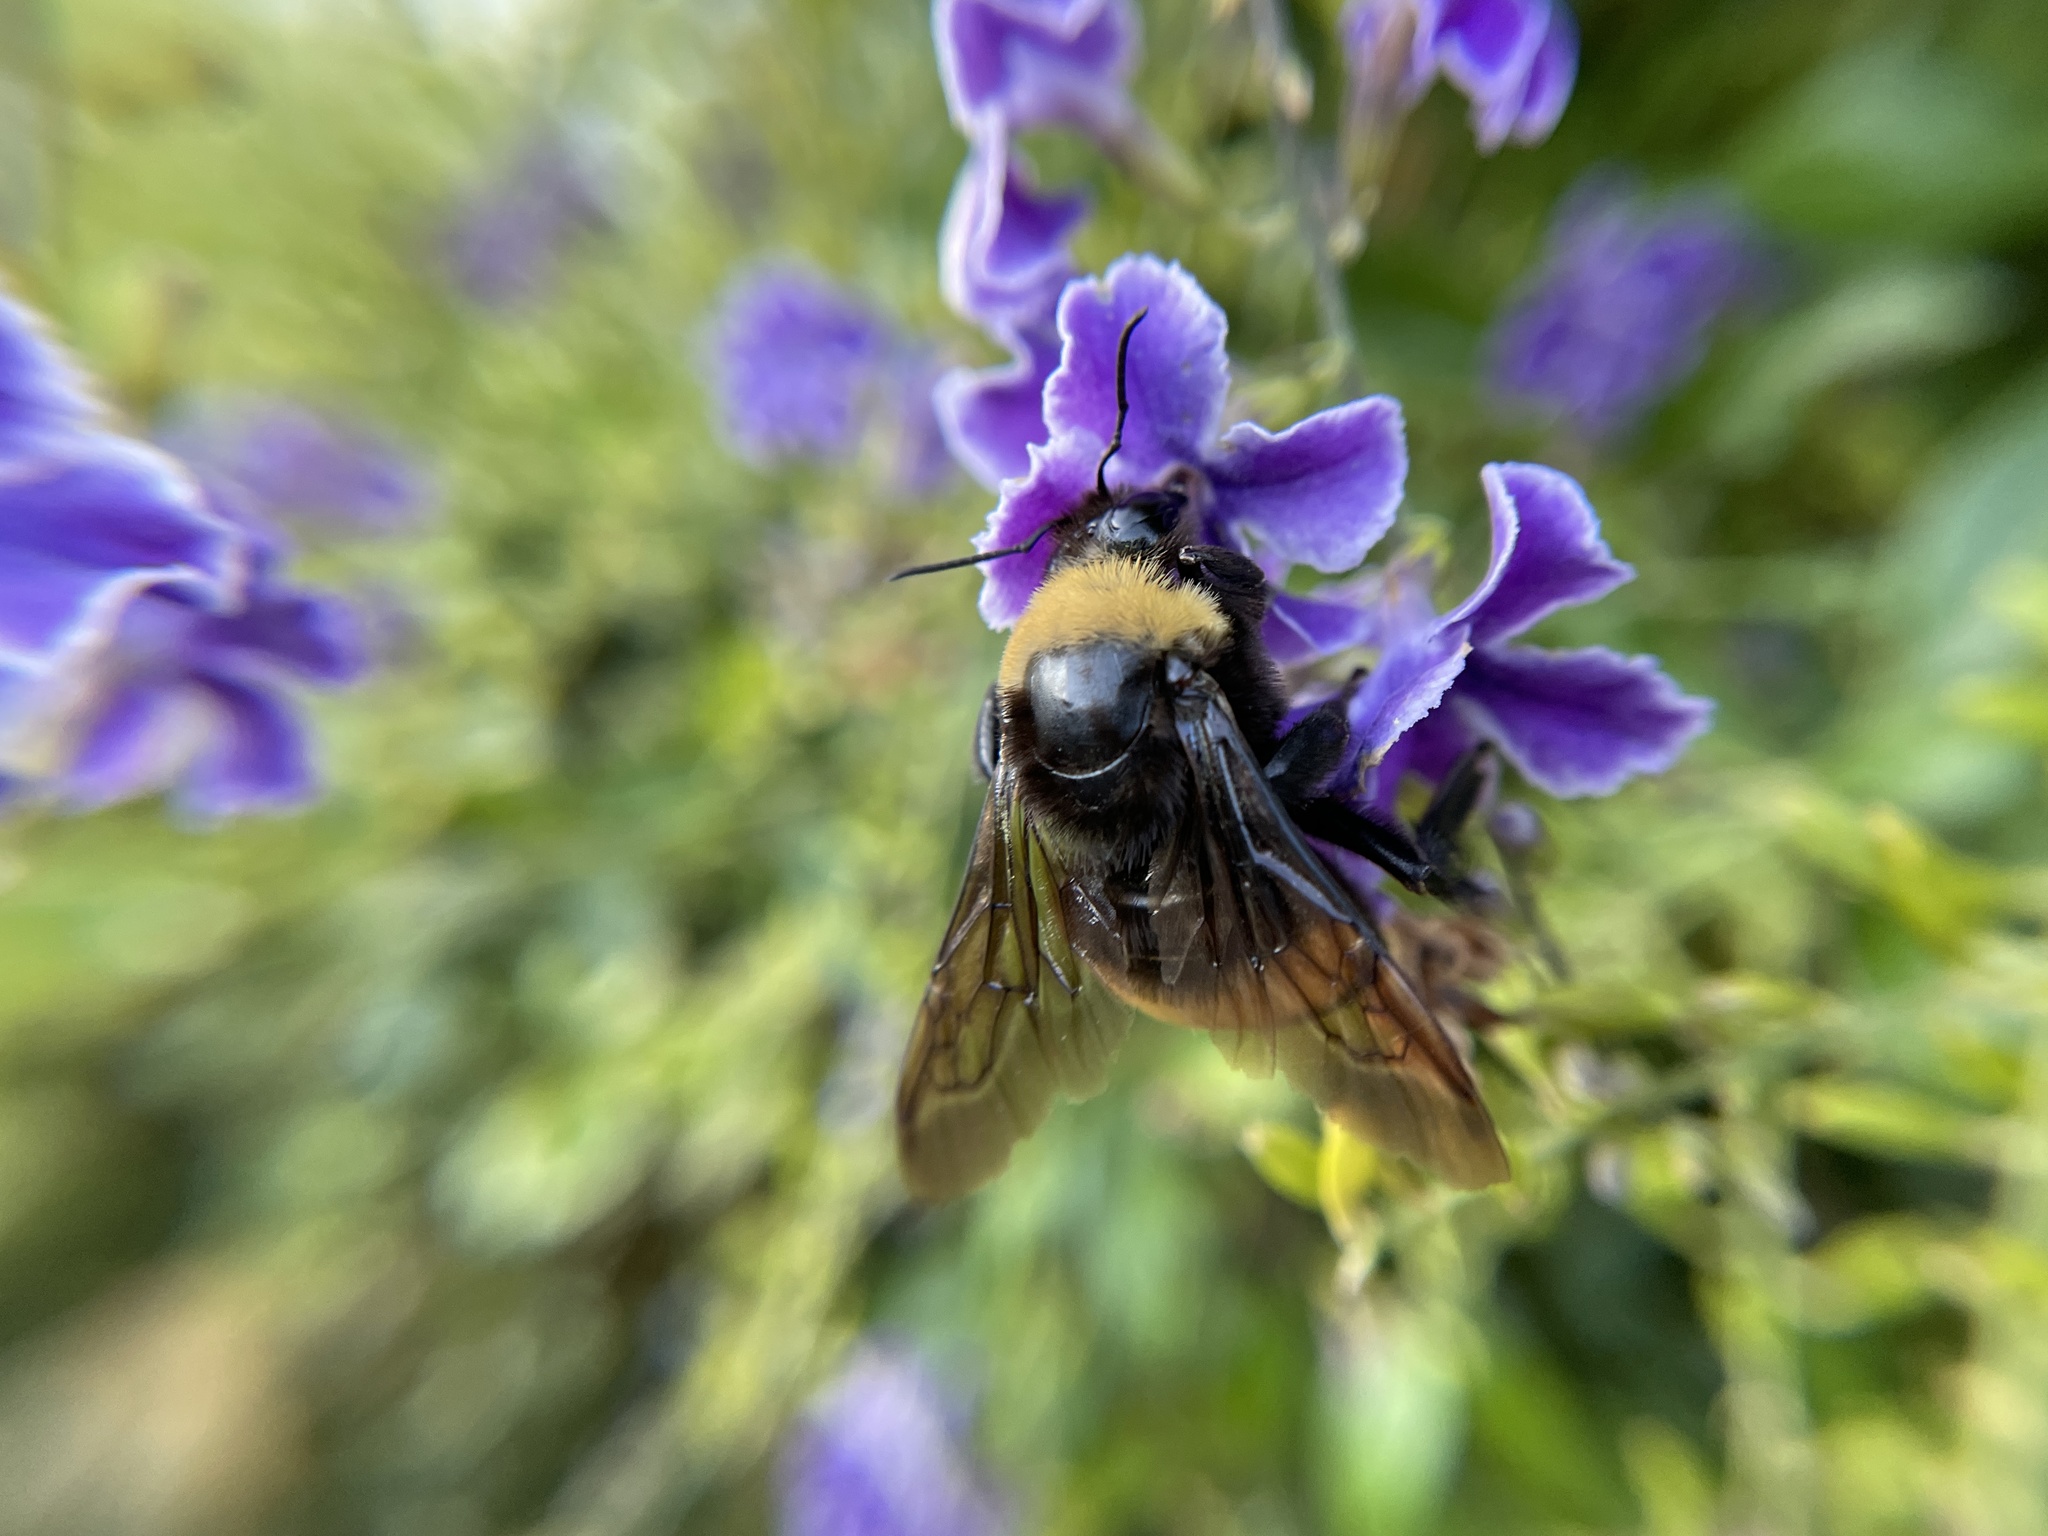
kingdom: Animalia
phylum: Arthropoda
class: Insecta
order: Hymenoptera
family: Apidae
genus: Bombus
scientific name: Bombus crotchii
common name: Crotch bumble bee
